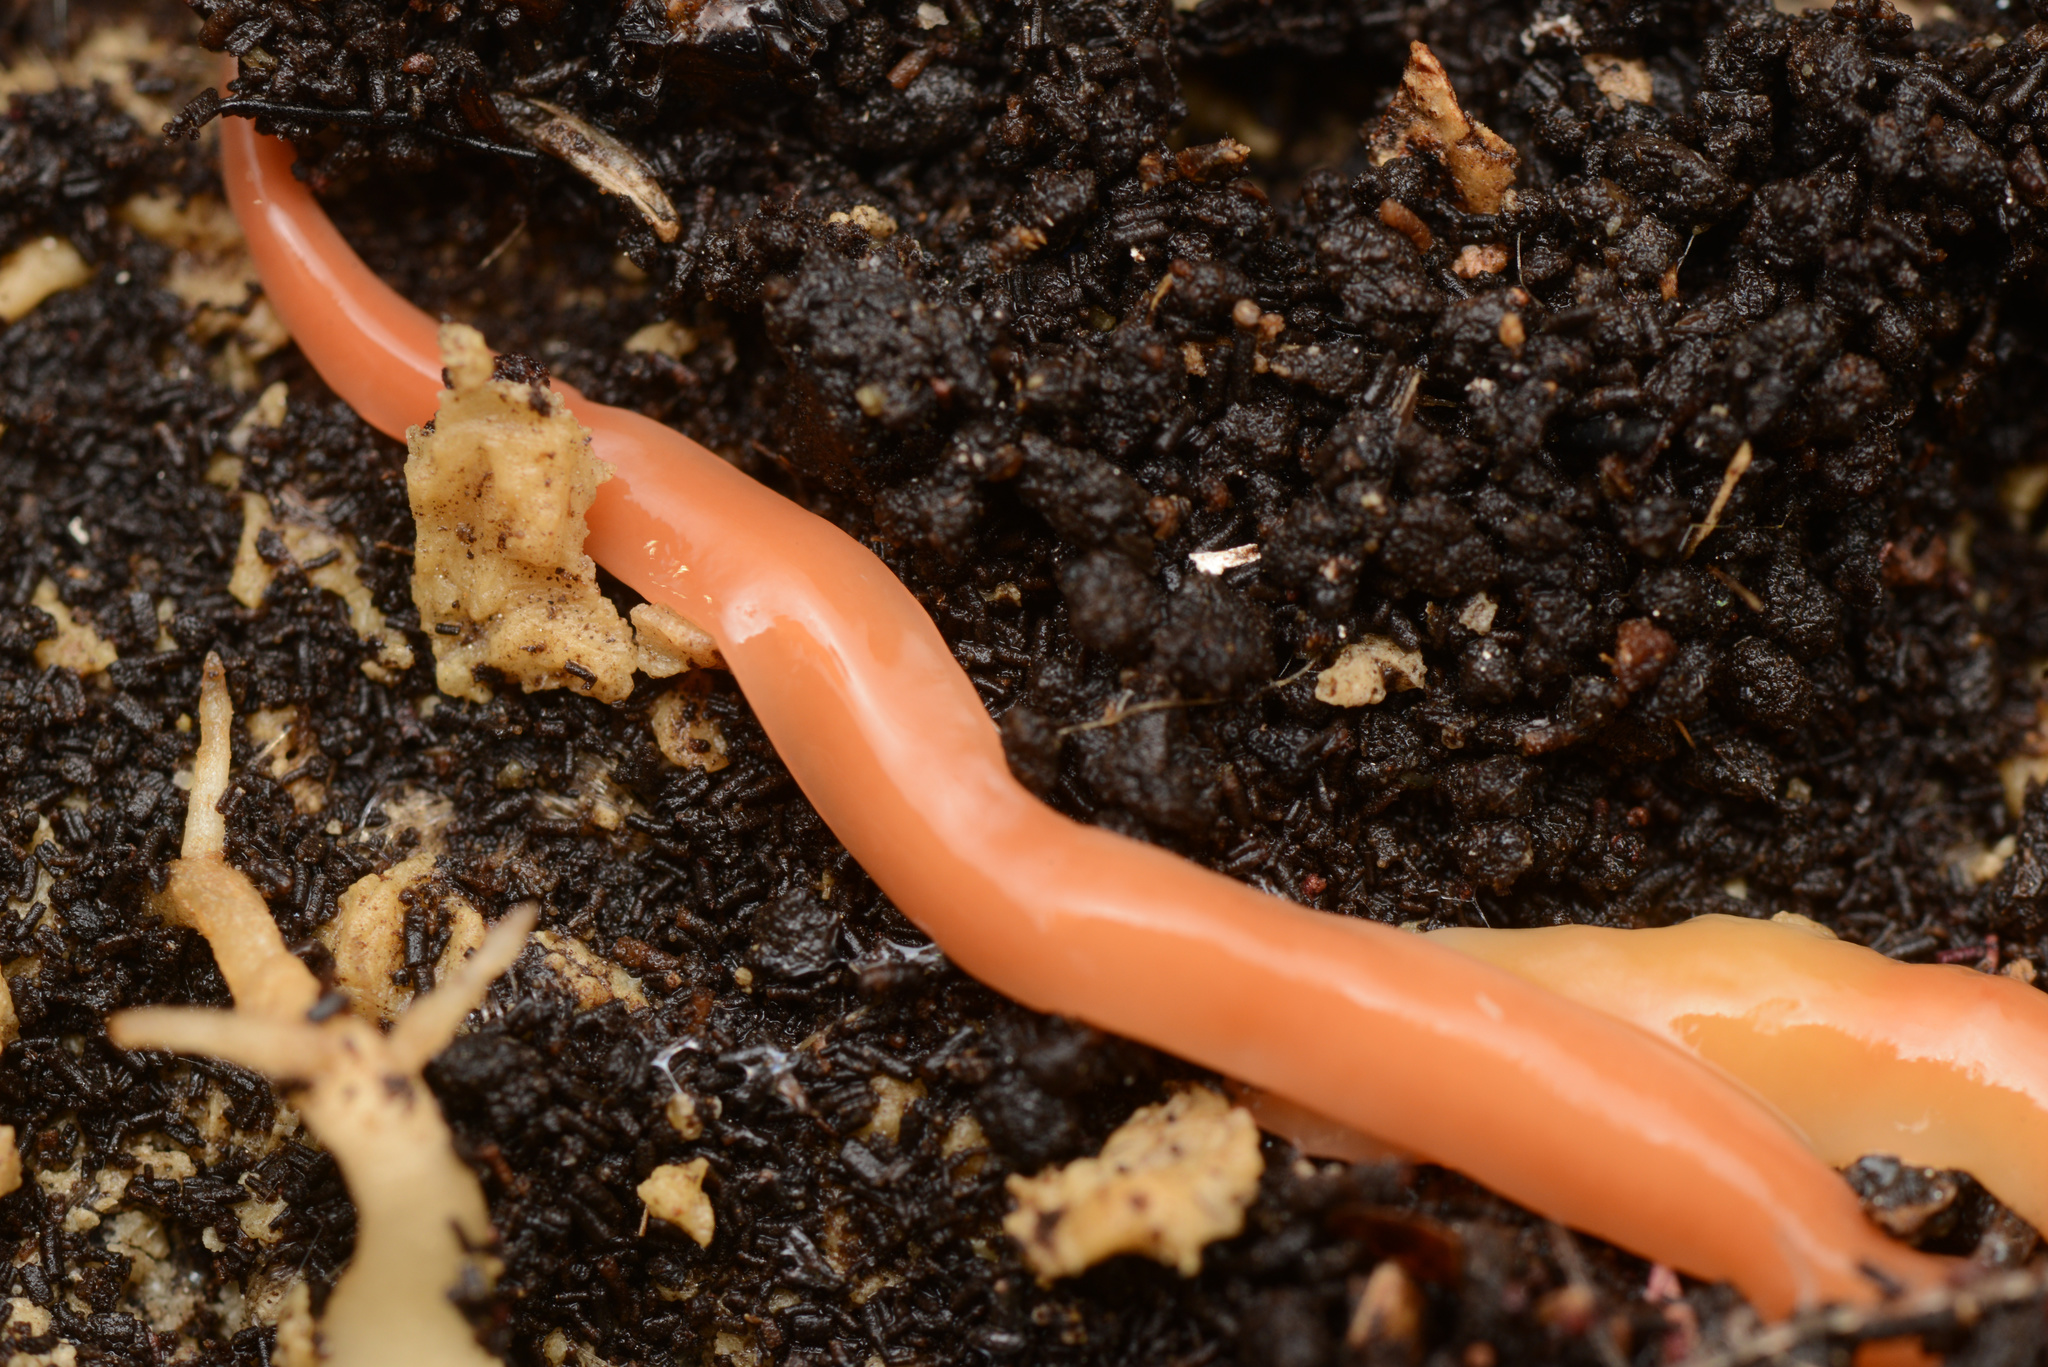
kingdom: Animalia
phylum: Platyhelminthes
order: Tricladida
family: Geoplanidae
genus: Australoplana
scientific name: Australoplana sanguinea
